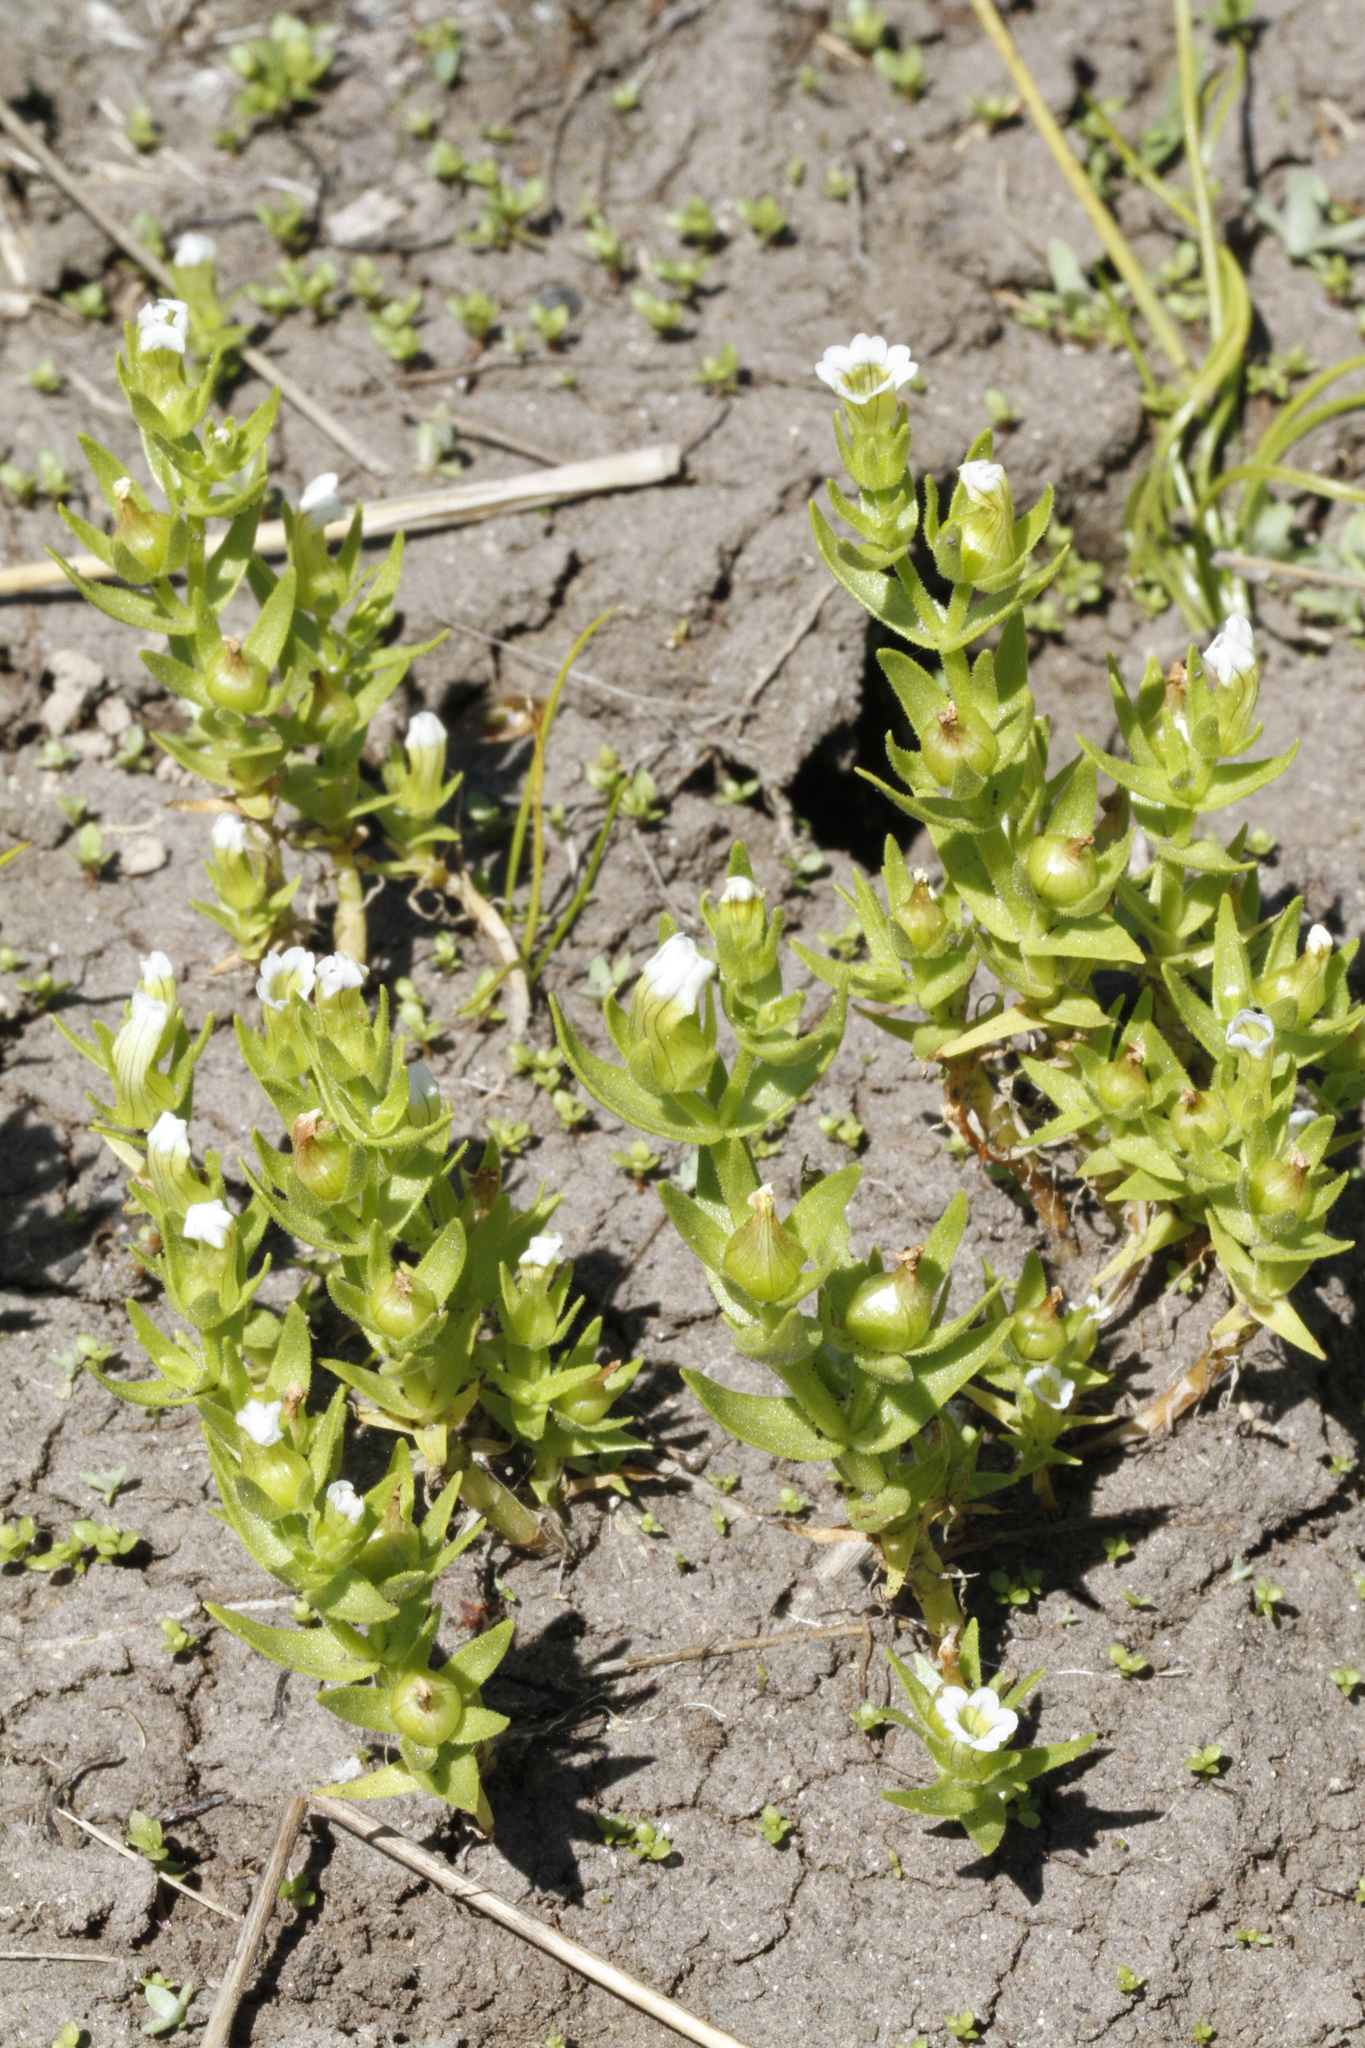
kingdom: Plantae
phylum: Tracheophyta
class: Magnoliopsida
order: Lamiales
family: Plantaginaceae
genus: Gratiola
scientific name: Gratiola ebracteata
